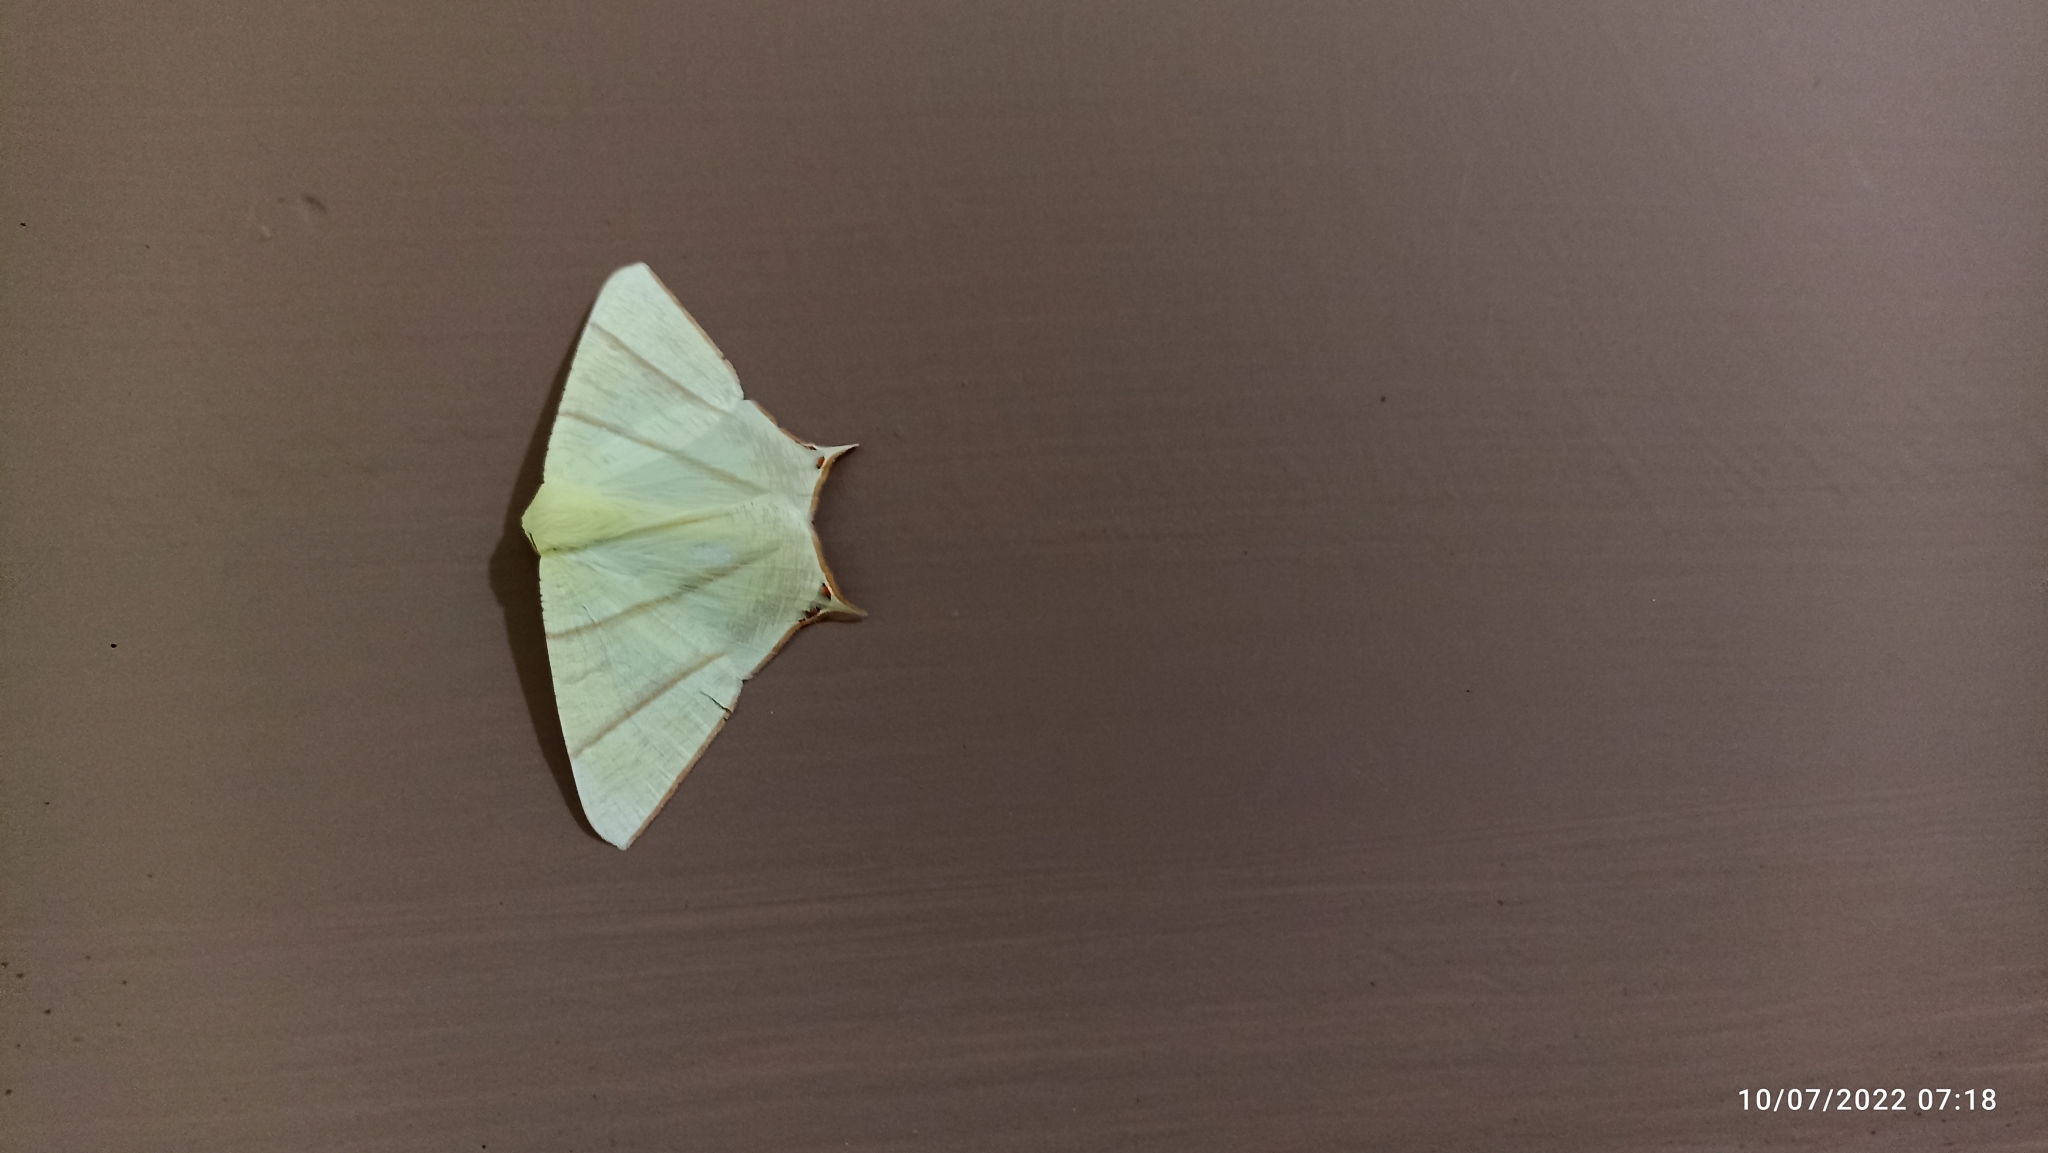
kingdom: Animalia
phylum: Arthropoda
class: Insecta
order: Lepidoptera
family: Geometridae
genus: Ourapteryx
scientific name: Ourapteryx peermaadiata
